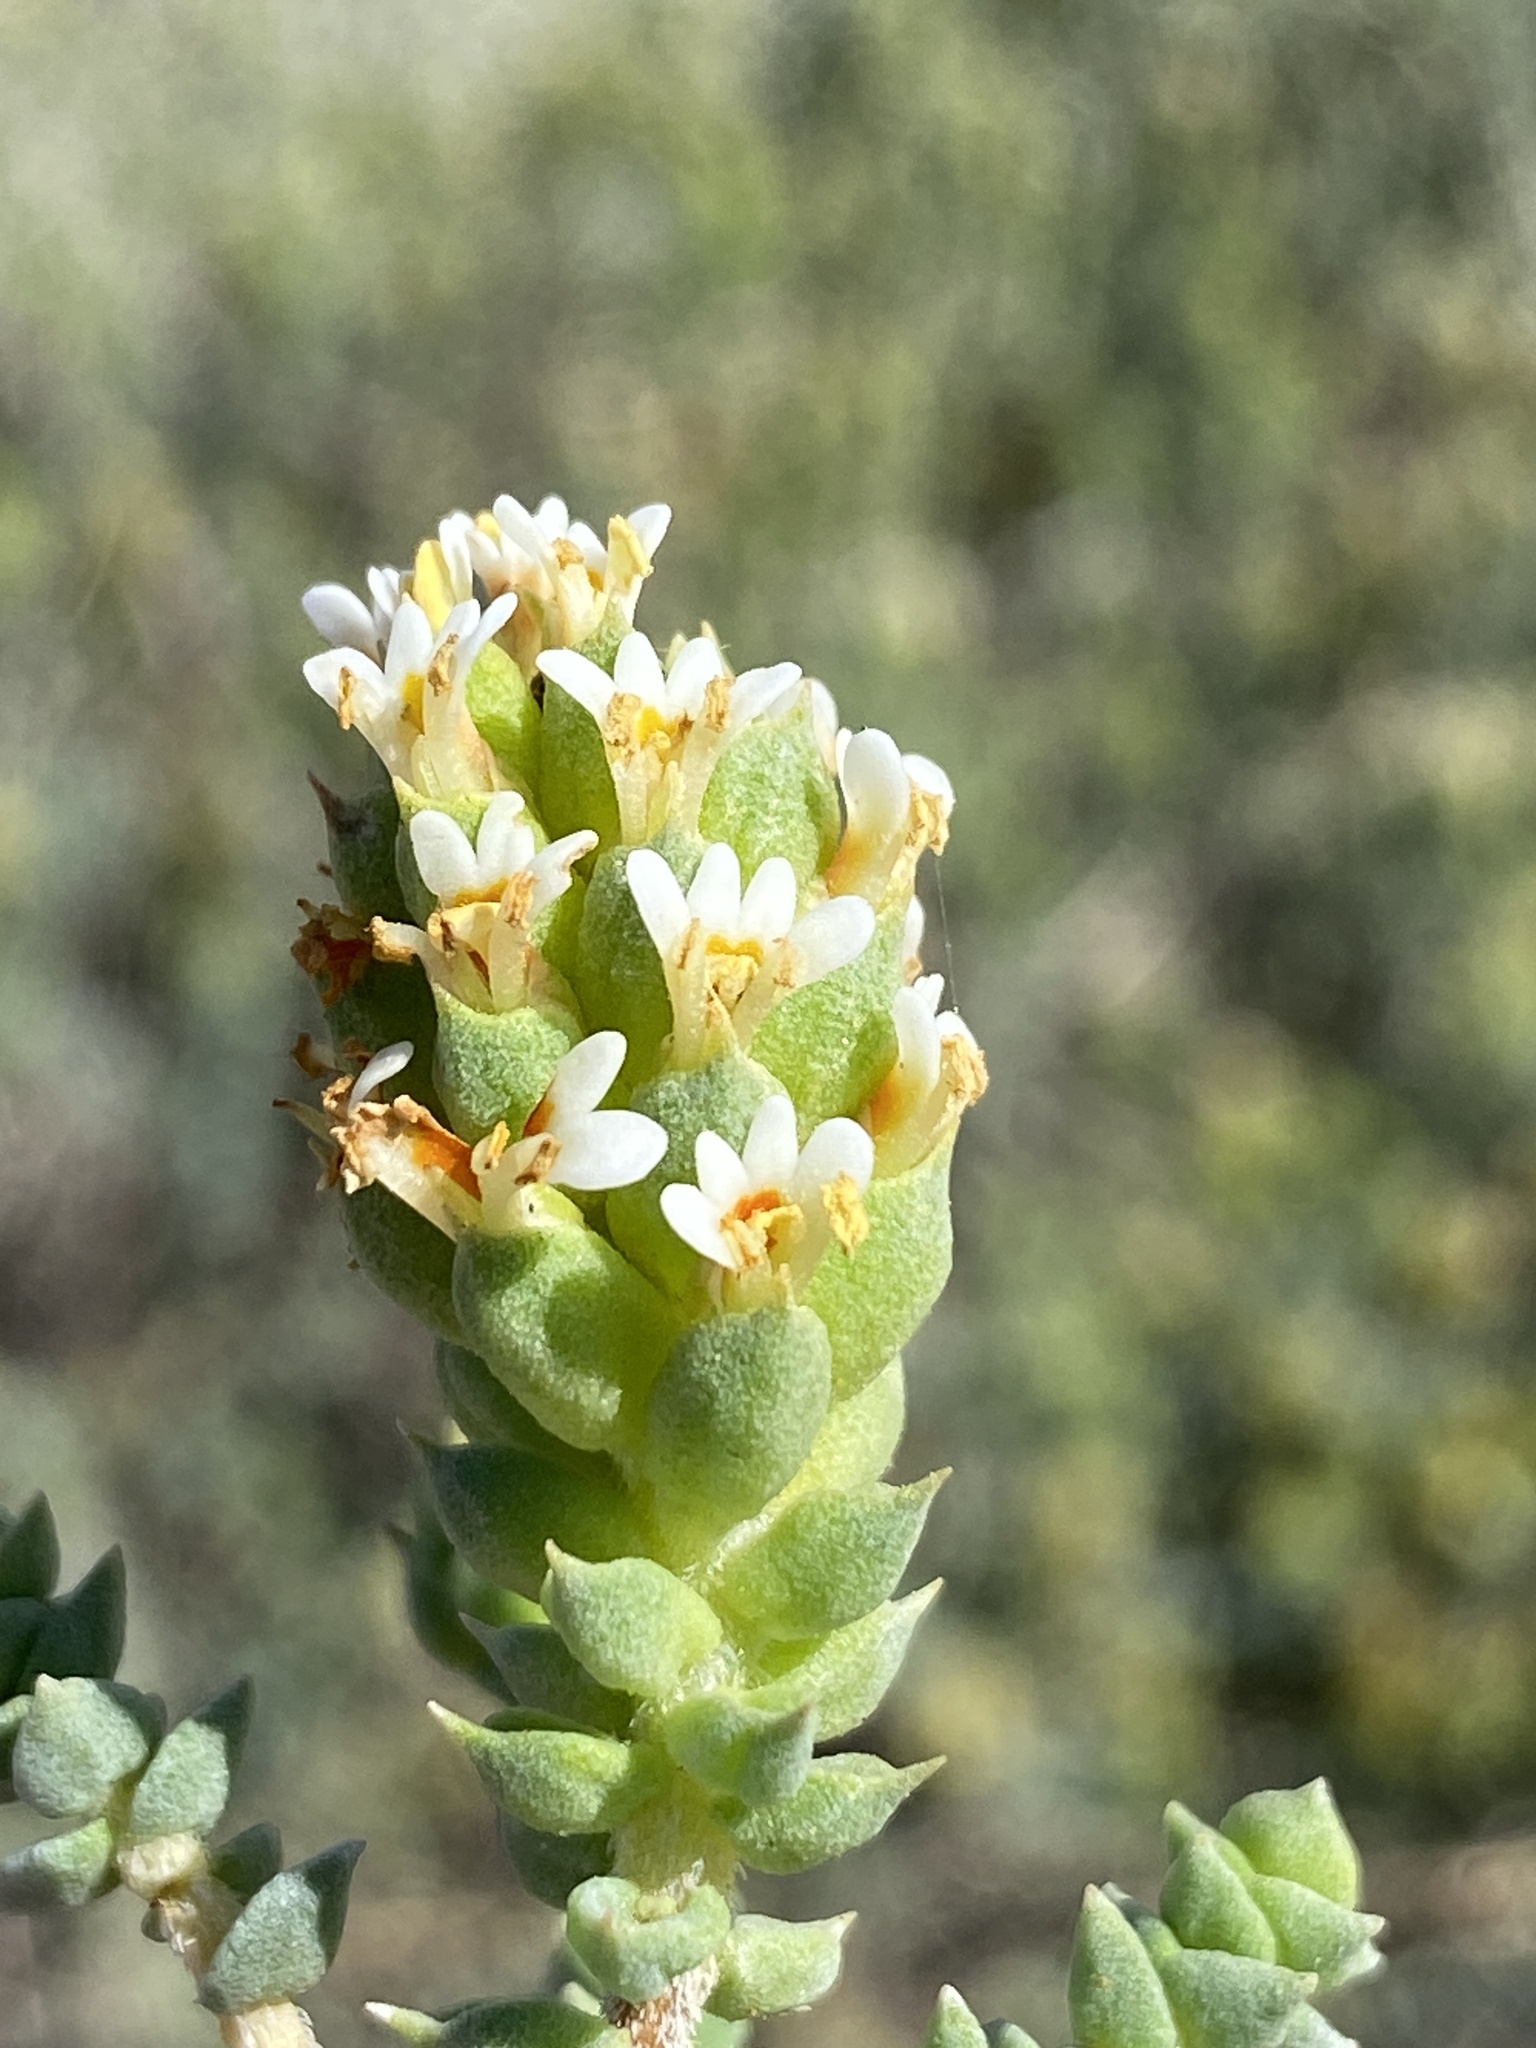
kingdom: Plantae
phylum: Tracheophyta
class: Magnoliopsida
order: Lamiales
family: Scrophulariaceae
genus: Hebenstretia
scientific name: Hebenstretia cordata
